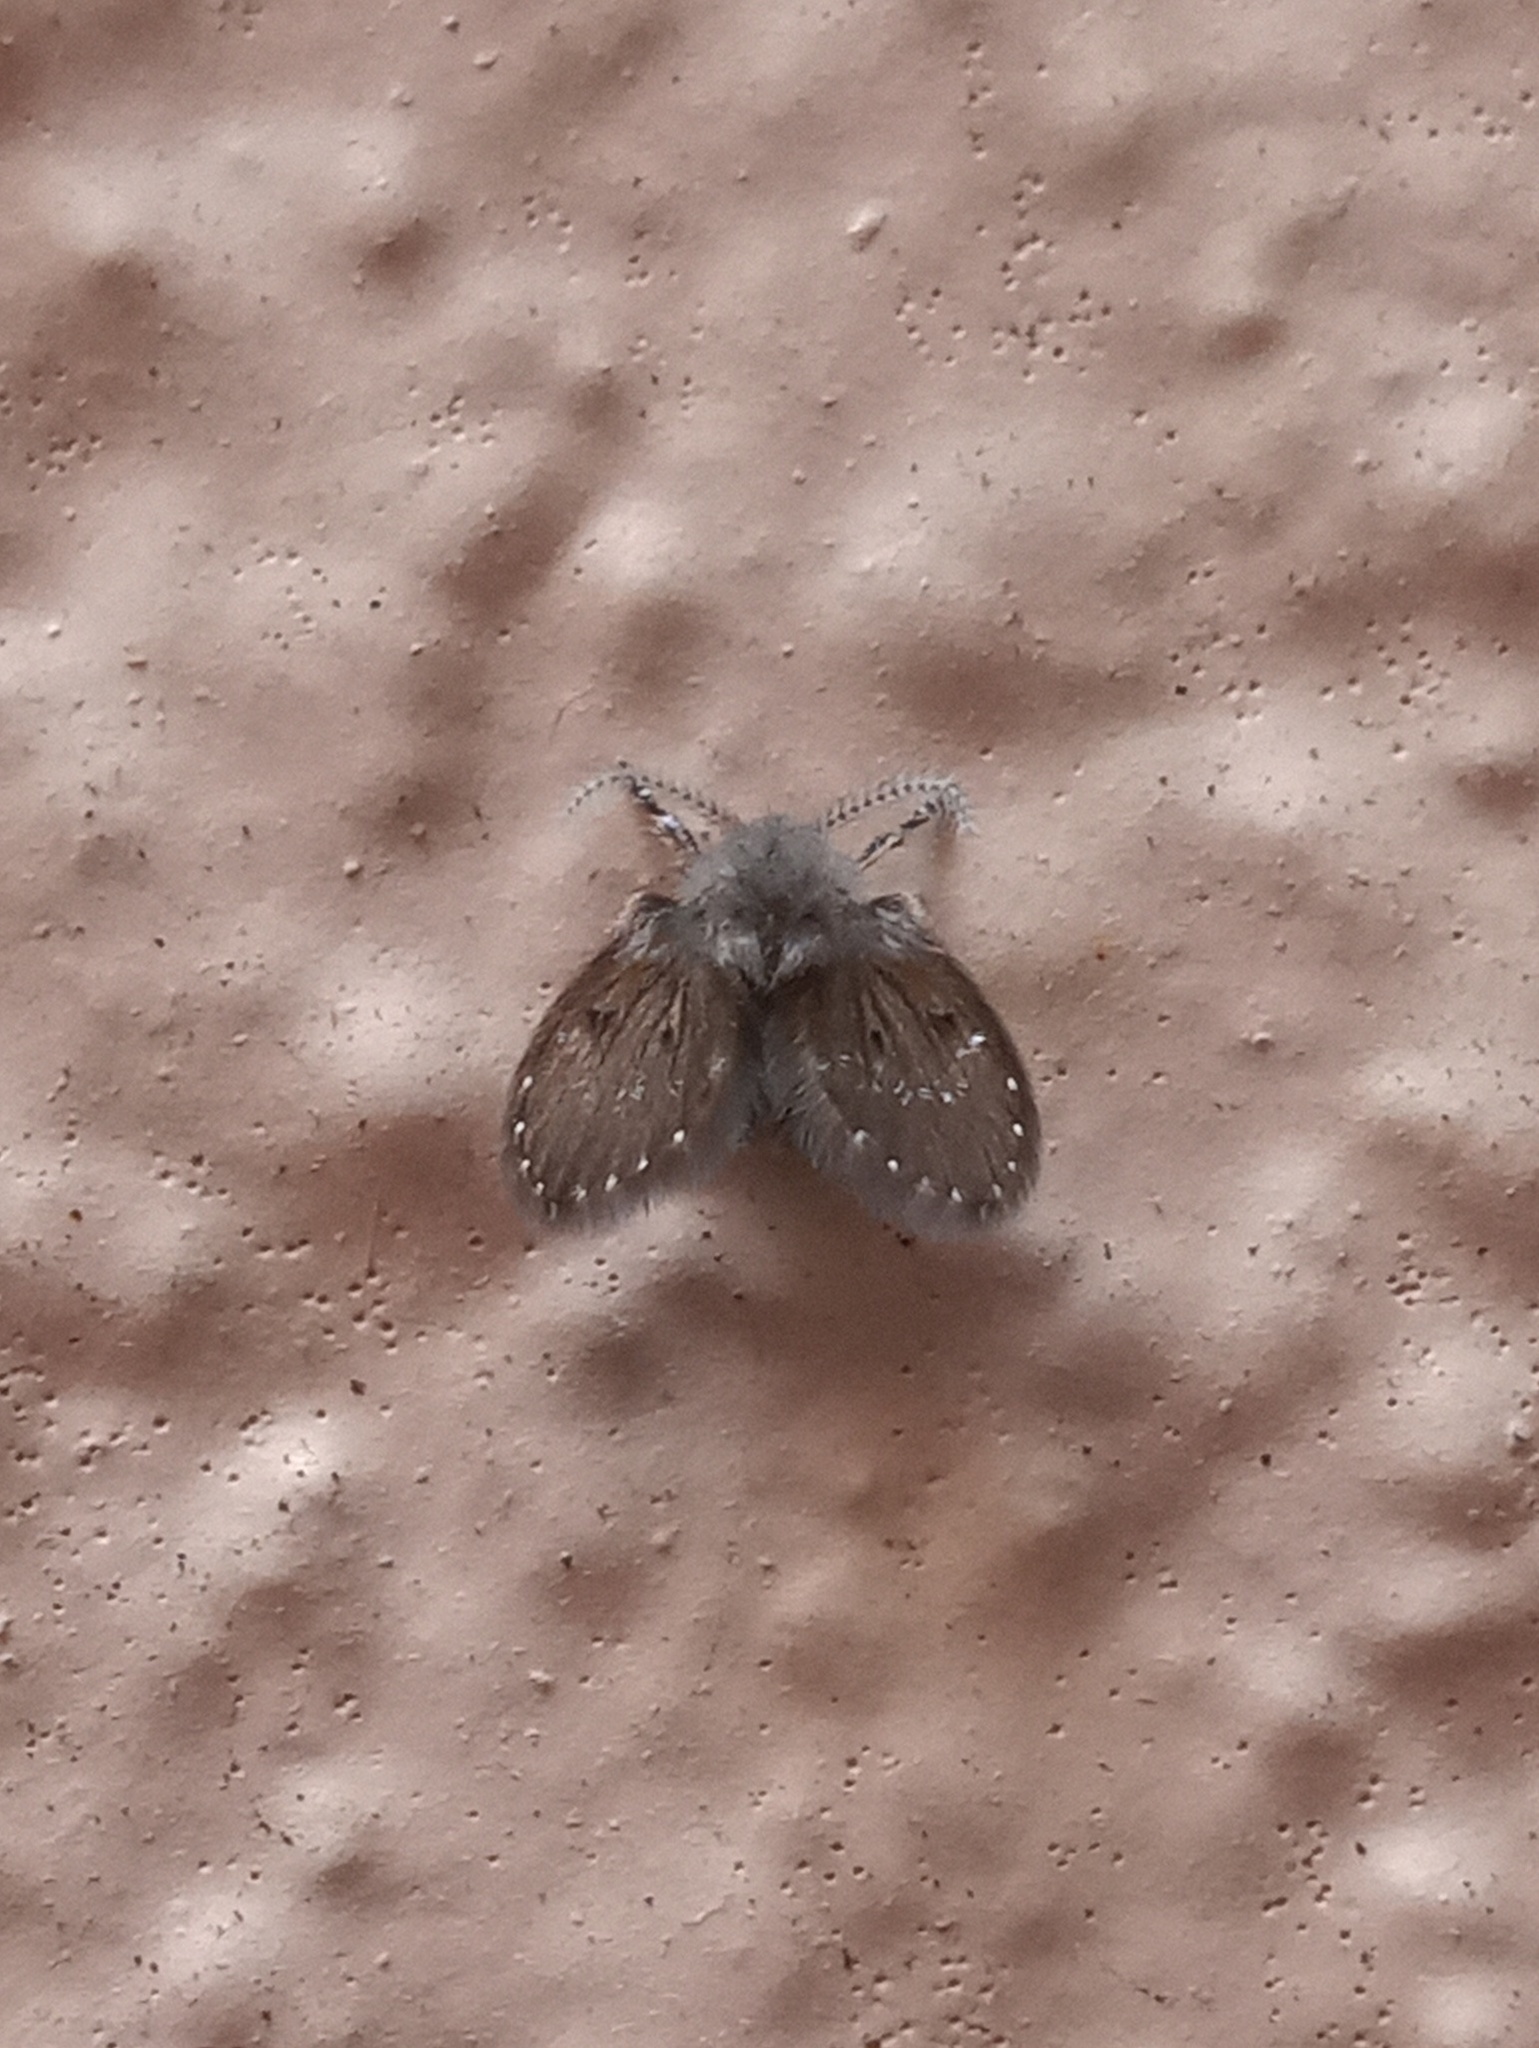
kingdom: Animalia
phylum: Arthropoda
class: Insecta
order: Diptera
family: Psychodidae
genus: Clogmia
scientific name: Clogmia albipunctatus
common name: White-spotted moth fly
